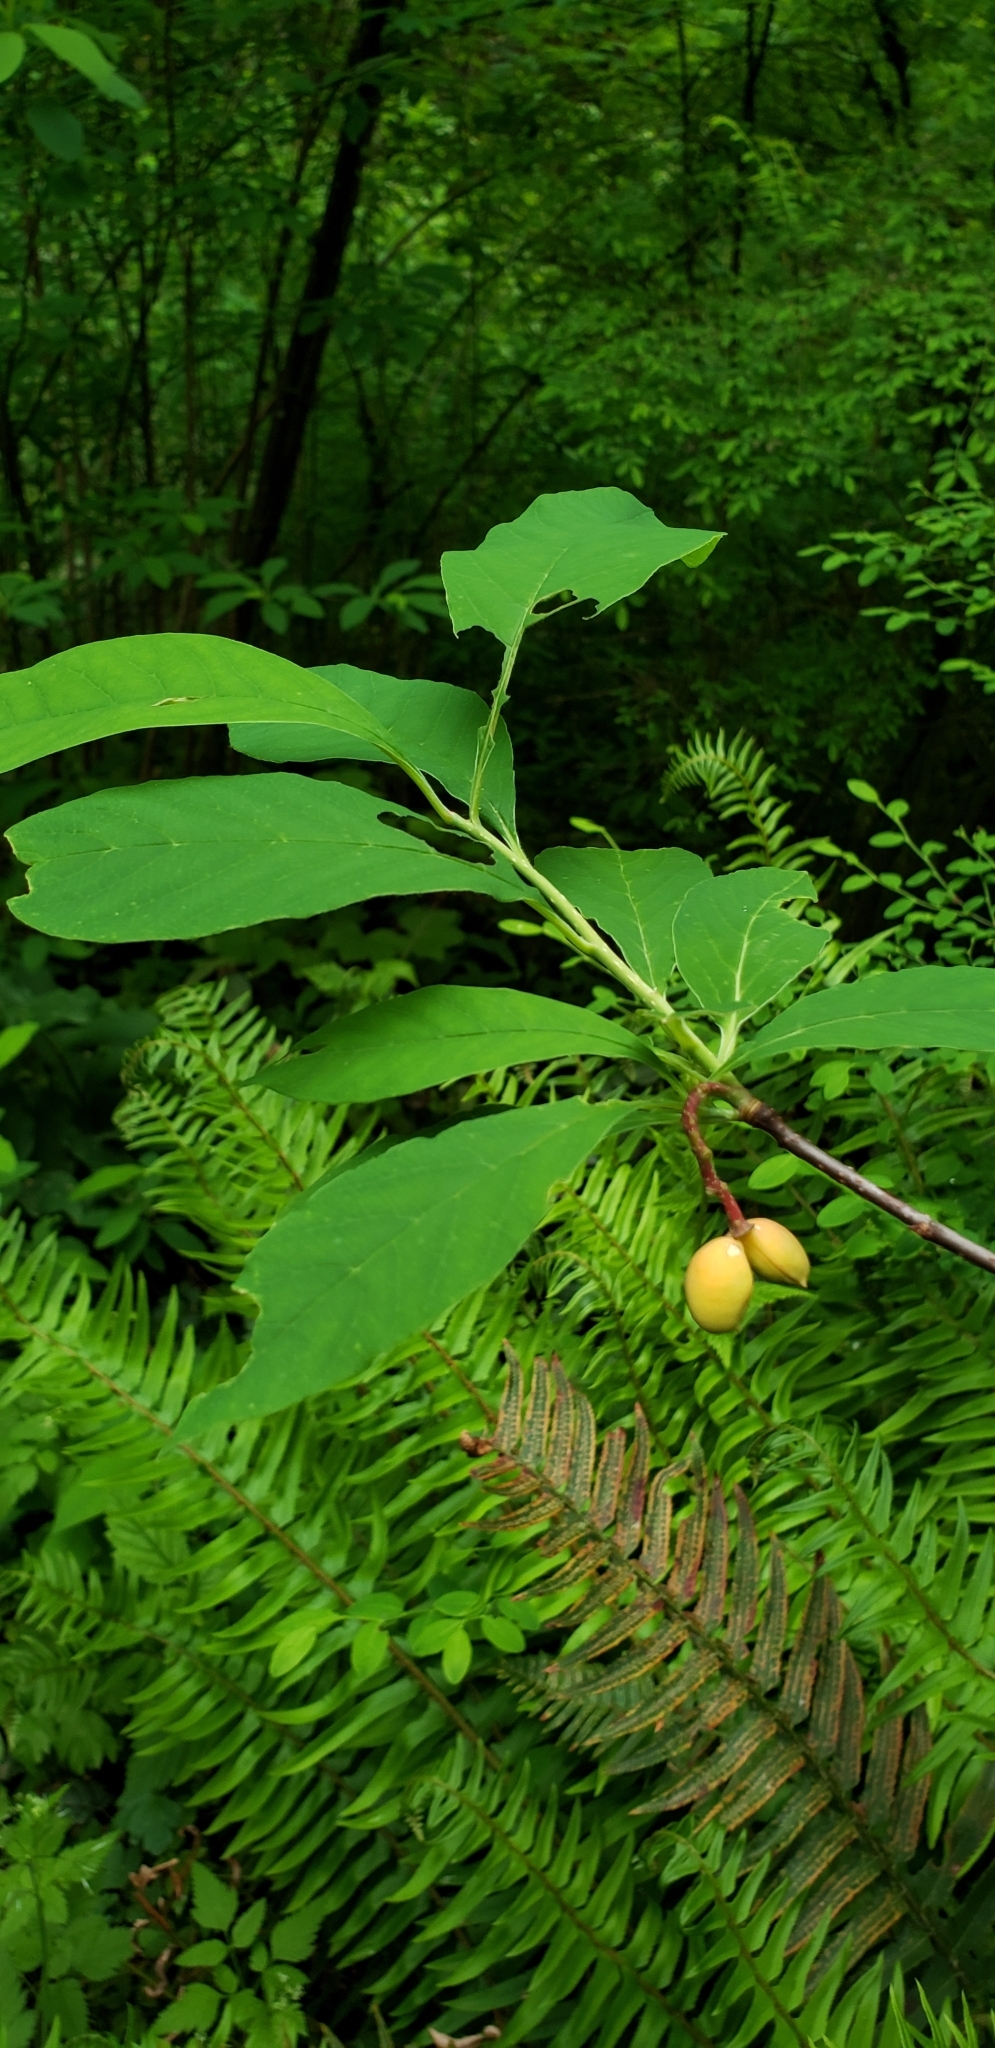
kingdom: Plantae
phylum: Tracheophyta
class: Magnoliopsida
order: Rosales
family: Rosaceae
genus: Oemleria
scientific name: Oemleria cerasiformis
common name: Osoberry
